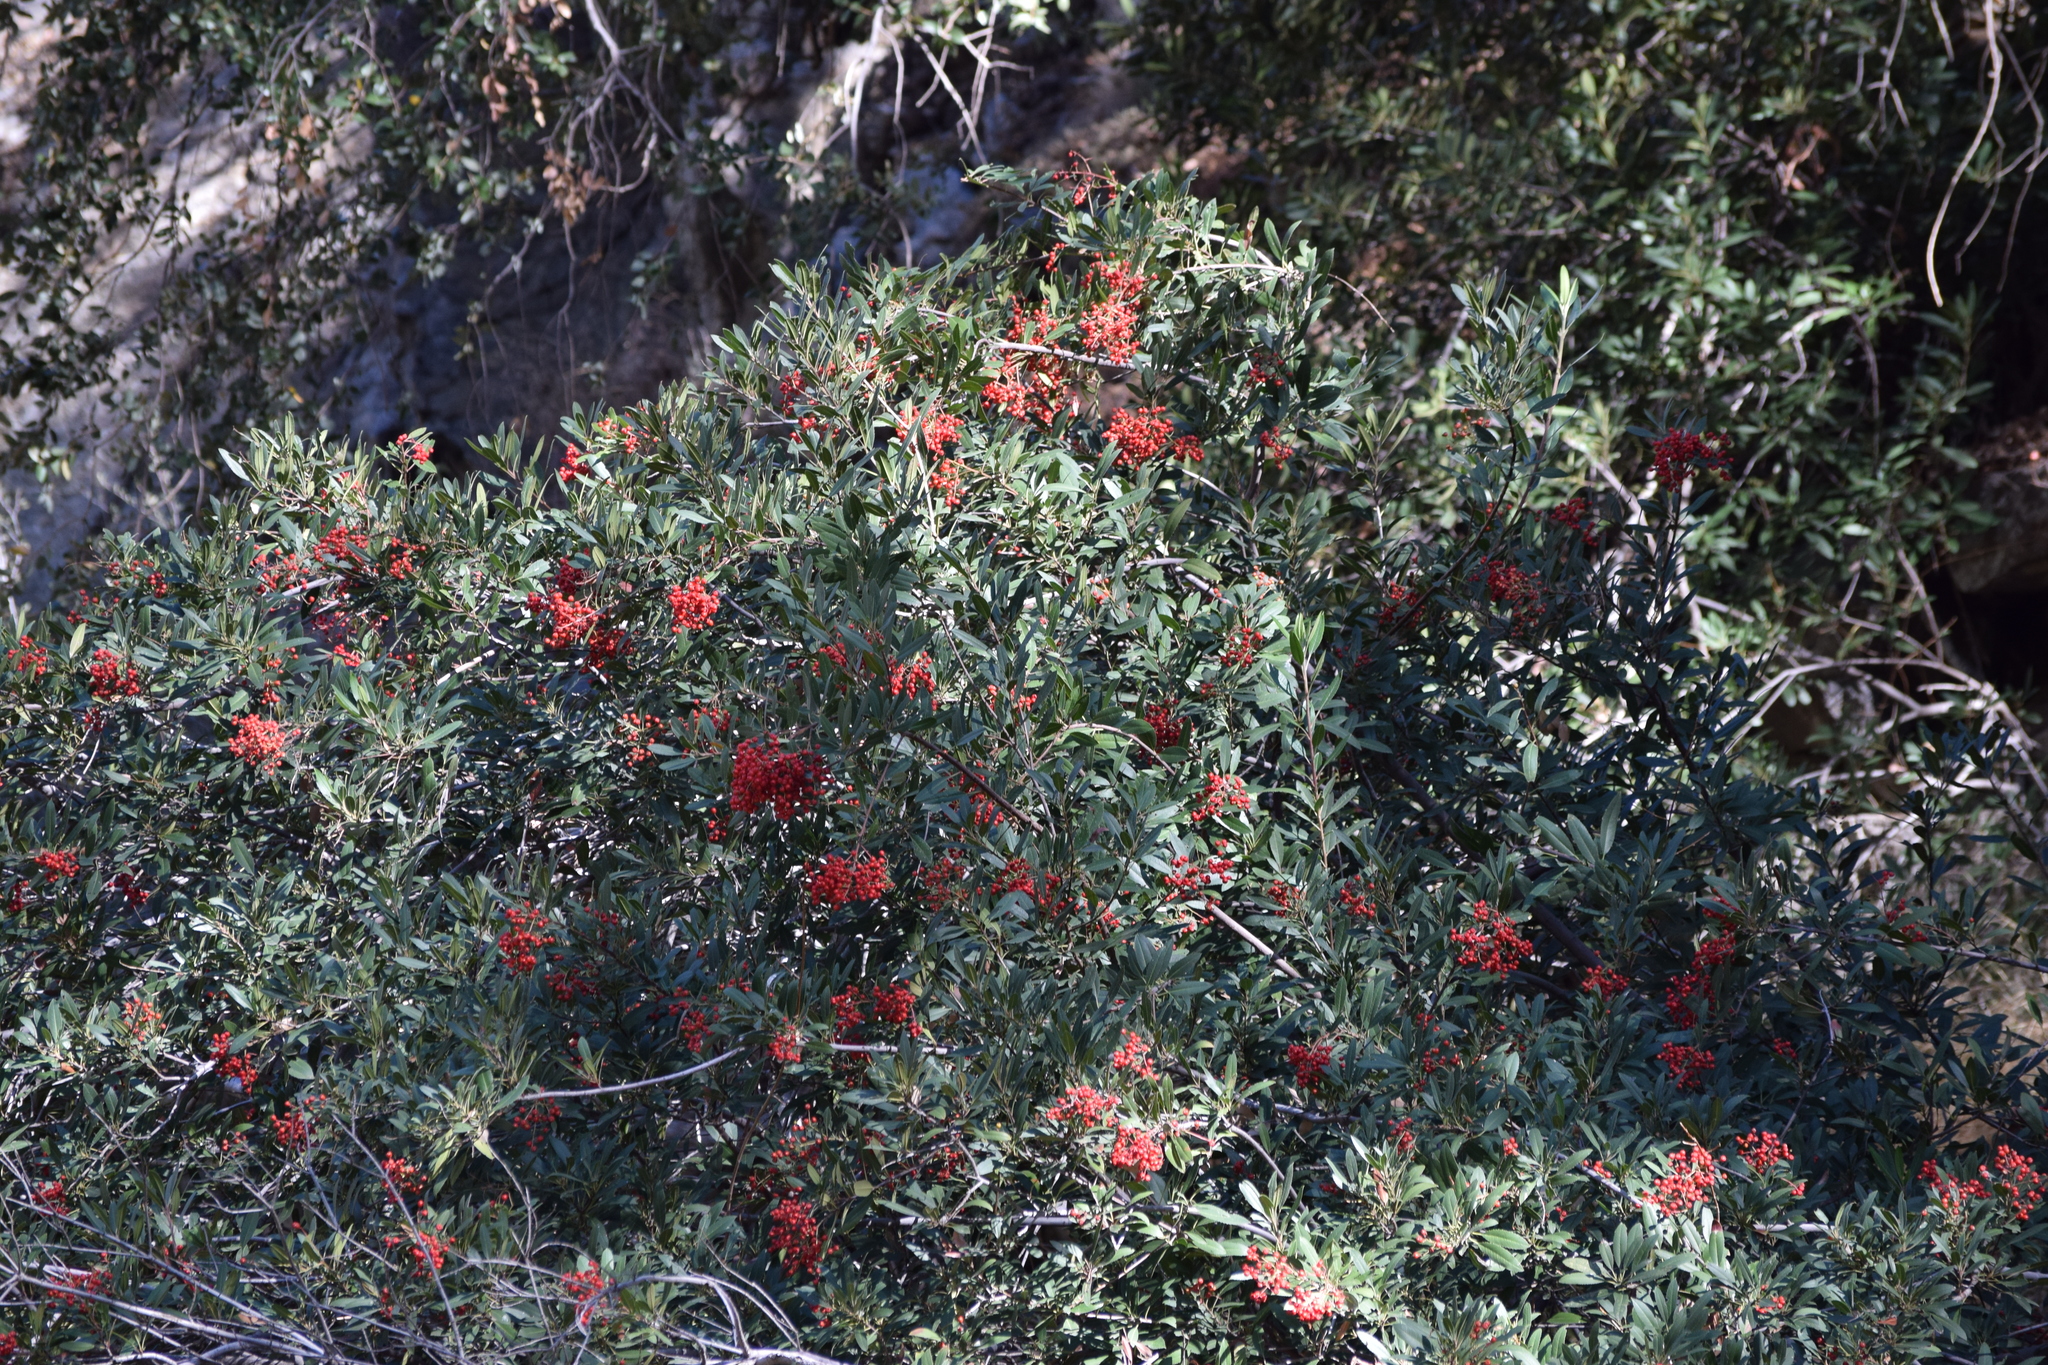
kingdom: Plantae
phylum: Tracheophyta
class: Magnoliopsida
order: Rosales
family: Rosaceae
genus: Heteromeles
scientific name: Heteromeles arbutifolia
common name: California-holly
